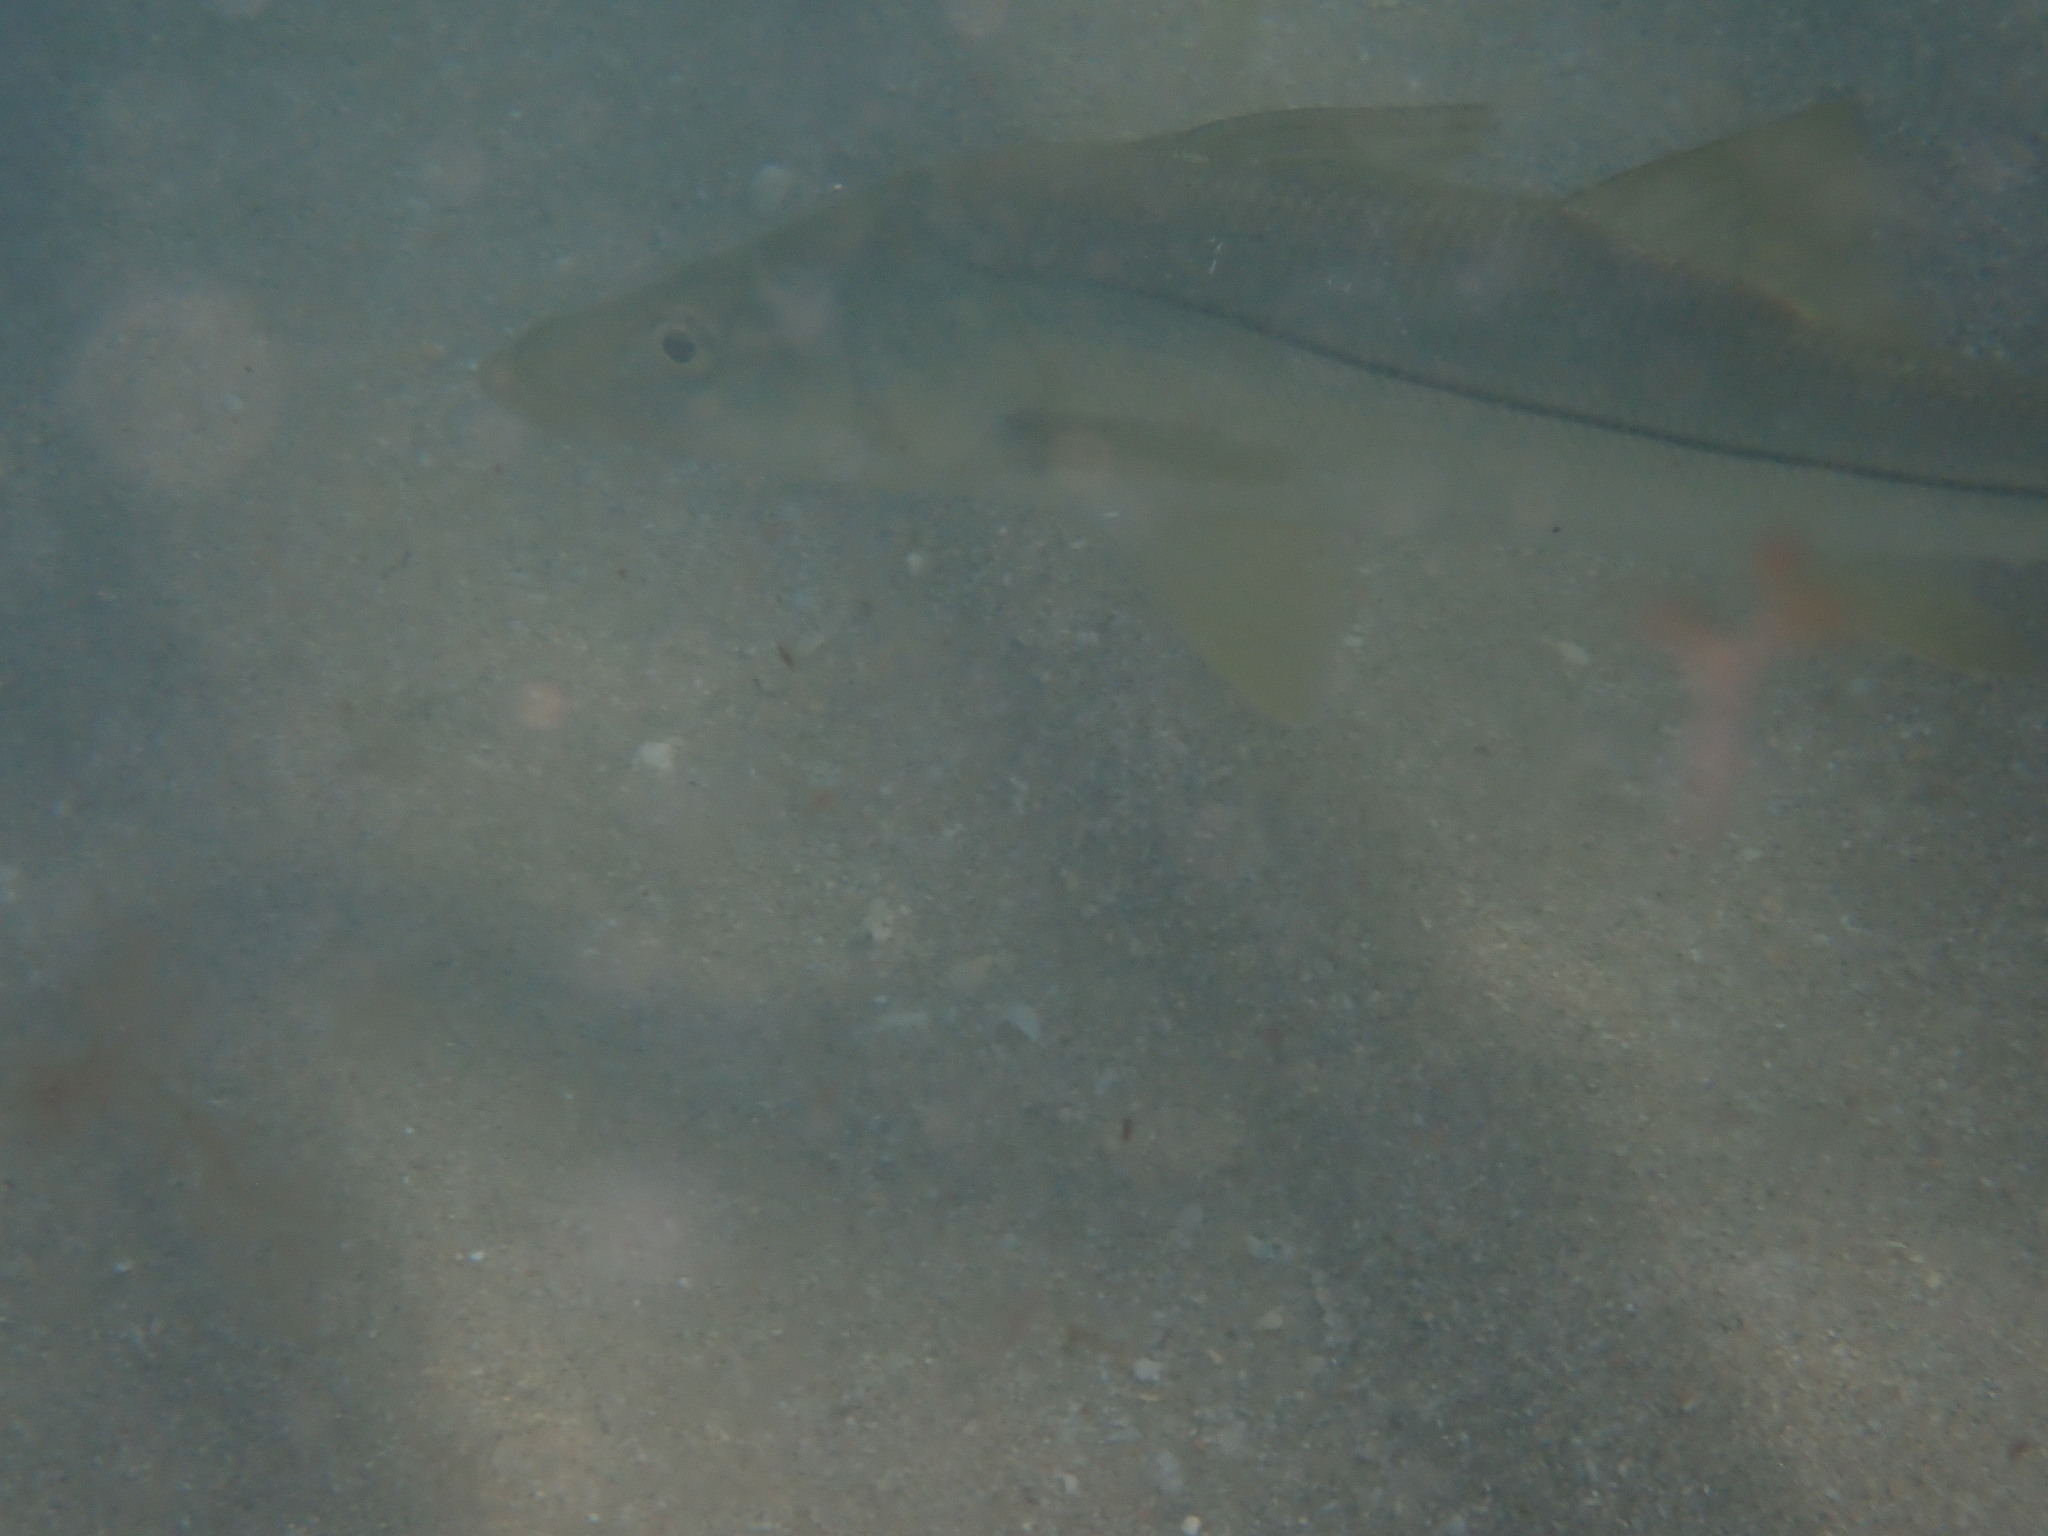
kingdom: Animalia
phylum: Chordata
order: Perciformes
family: Centropomidae
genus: Centropomus
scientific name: Centropomus undecimalis
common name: Snook
